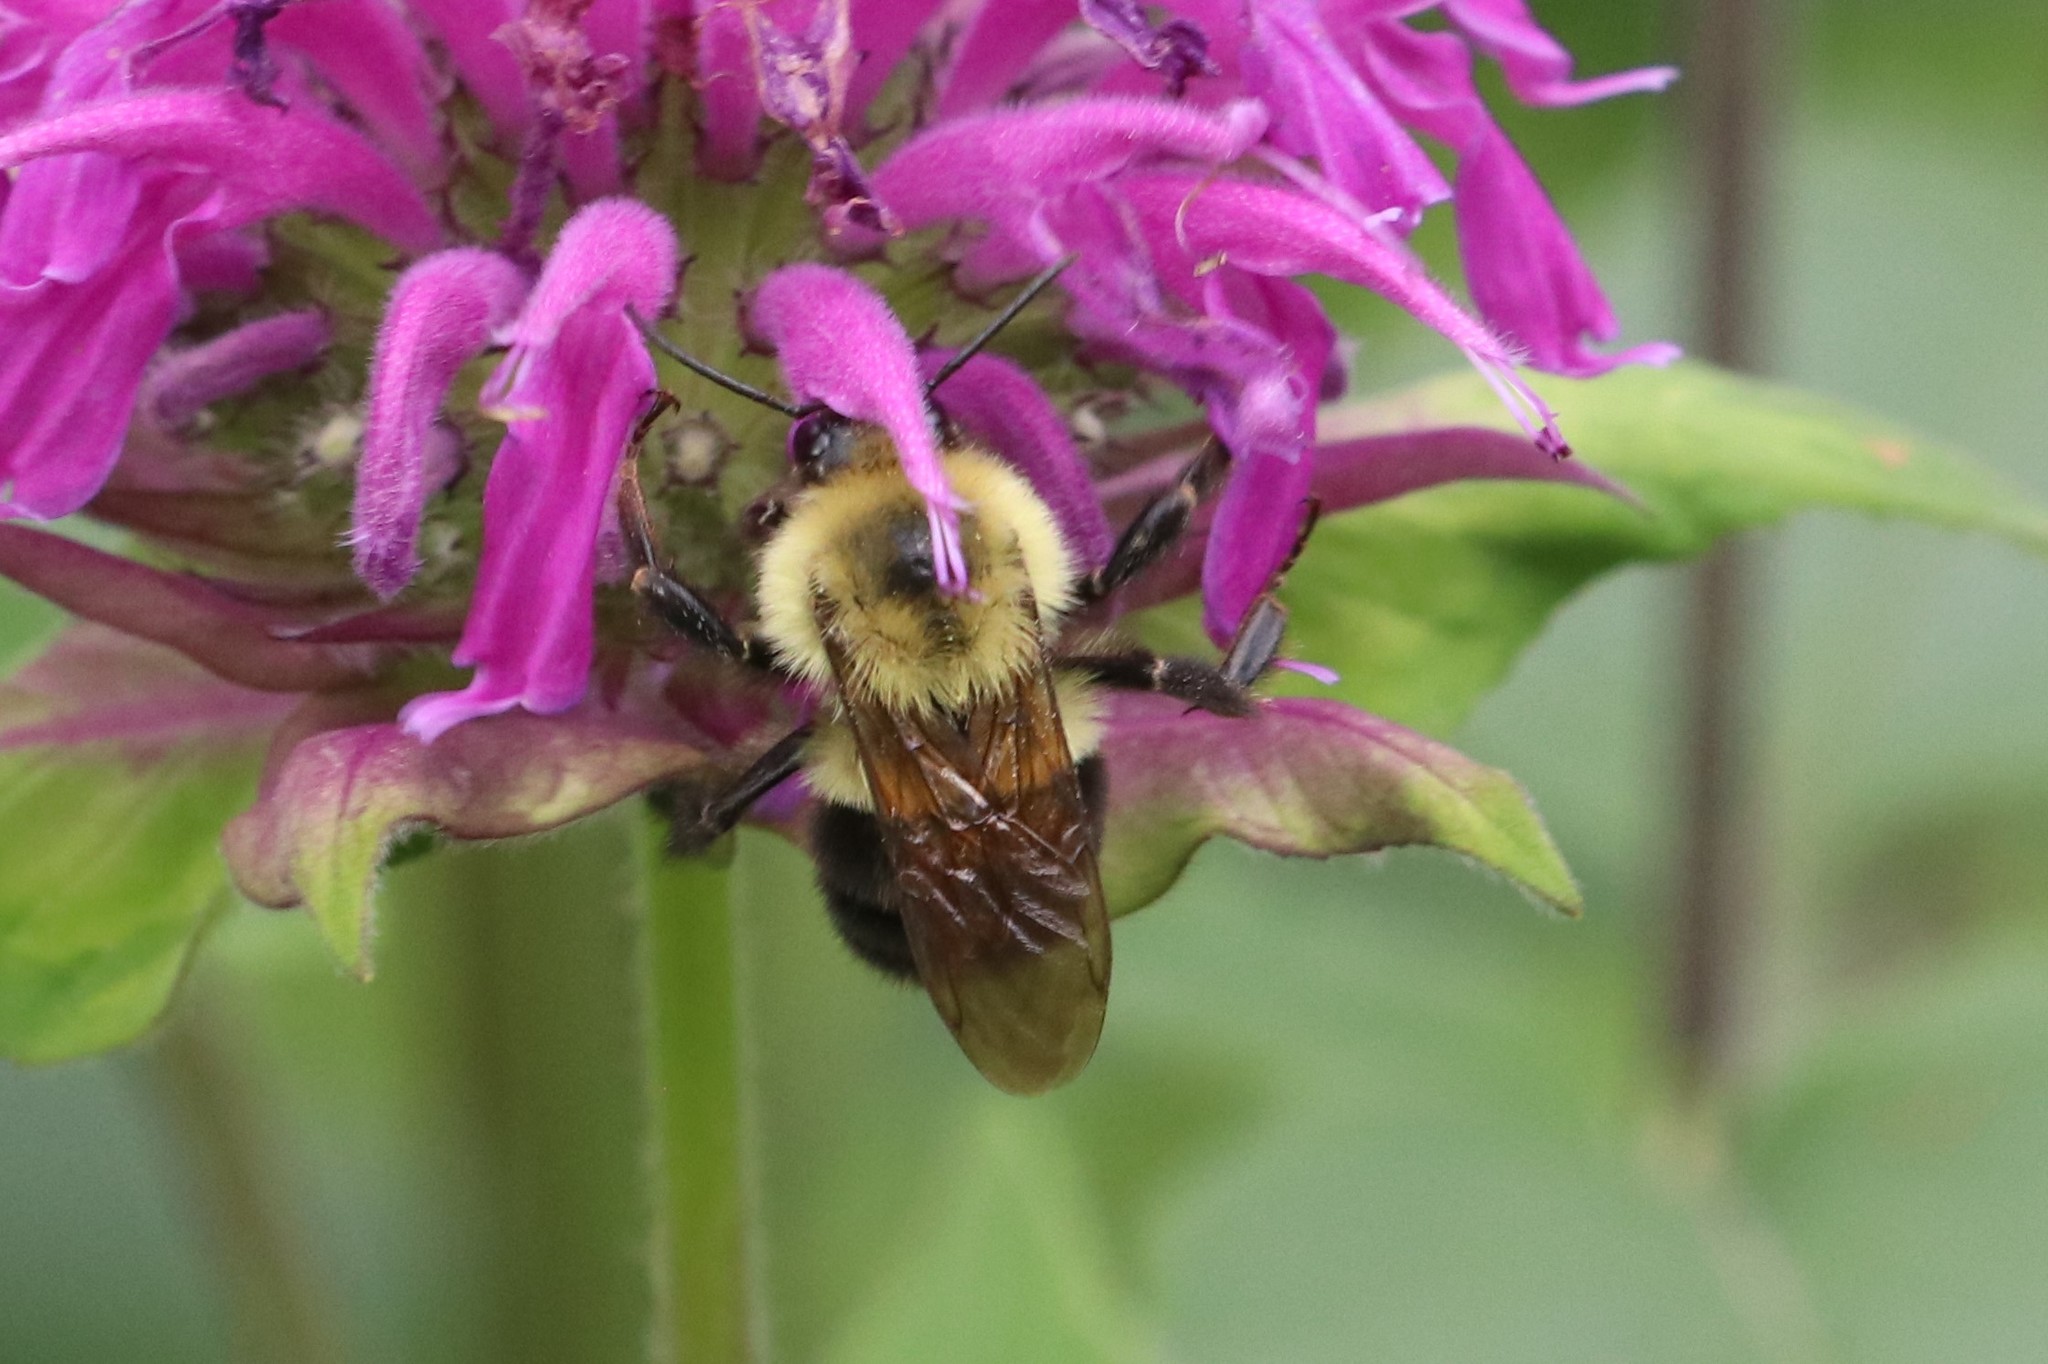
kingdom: Animalia
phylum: Arthropoda
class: Insecta
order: Hymenoptera
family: Apidae
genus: Bombus
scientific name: Bombus impatiens
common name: Common eastern bumble bee
